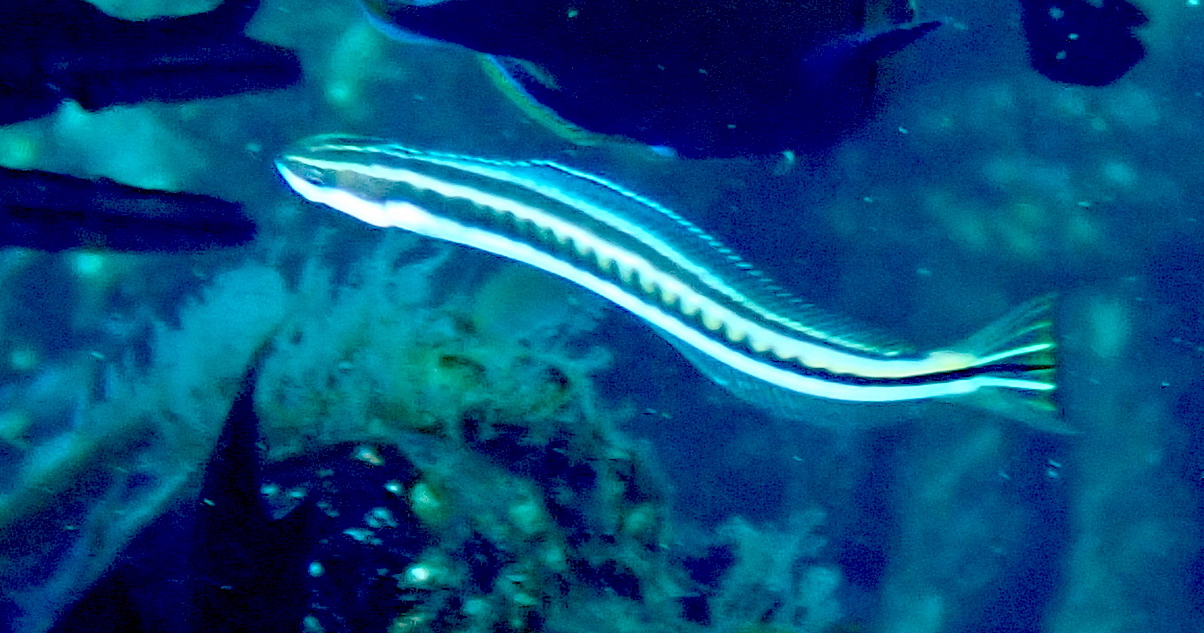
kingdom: Animalia
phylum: Chordata
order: Perciformes
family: Blenniidae
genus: Plagiotremus
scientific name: Plagiotremus tapeinosoma
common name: Hit and run blenny
